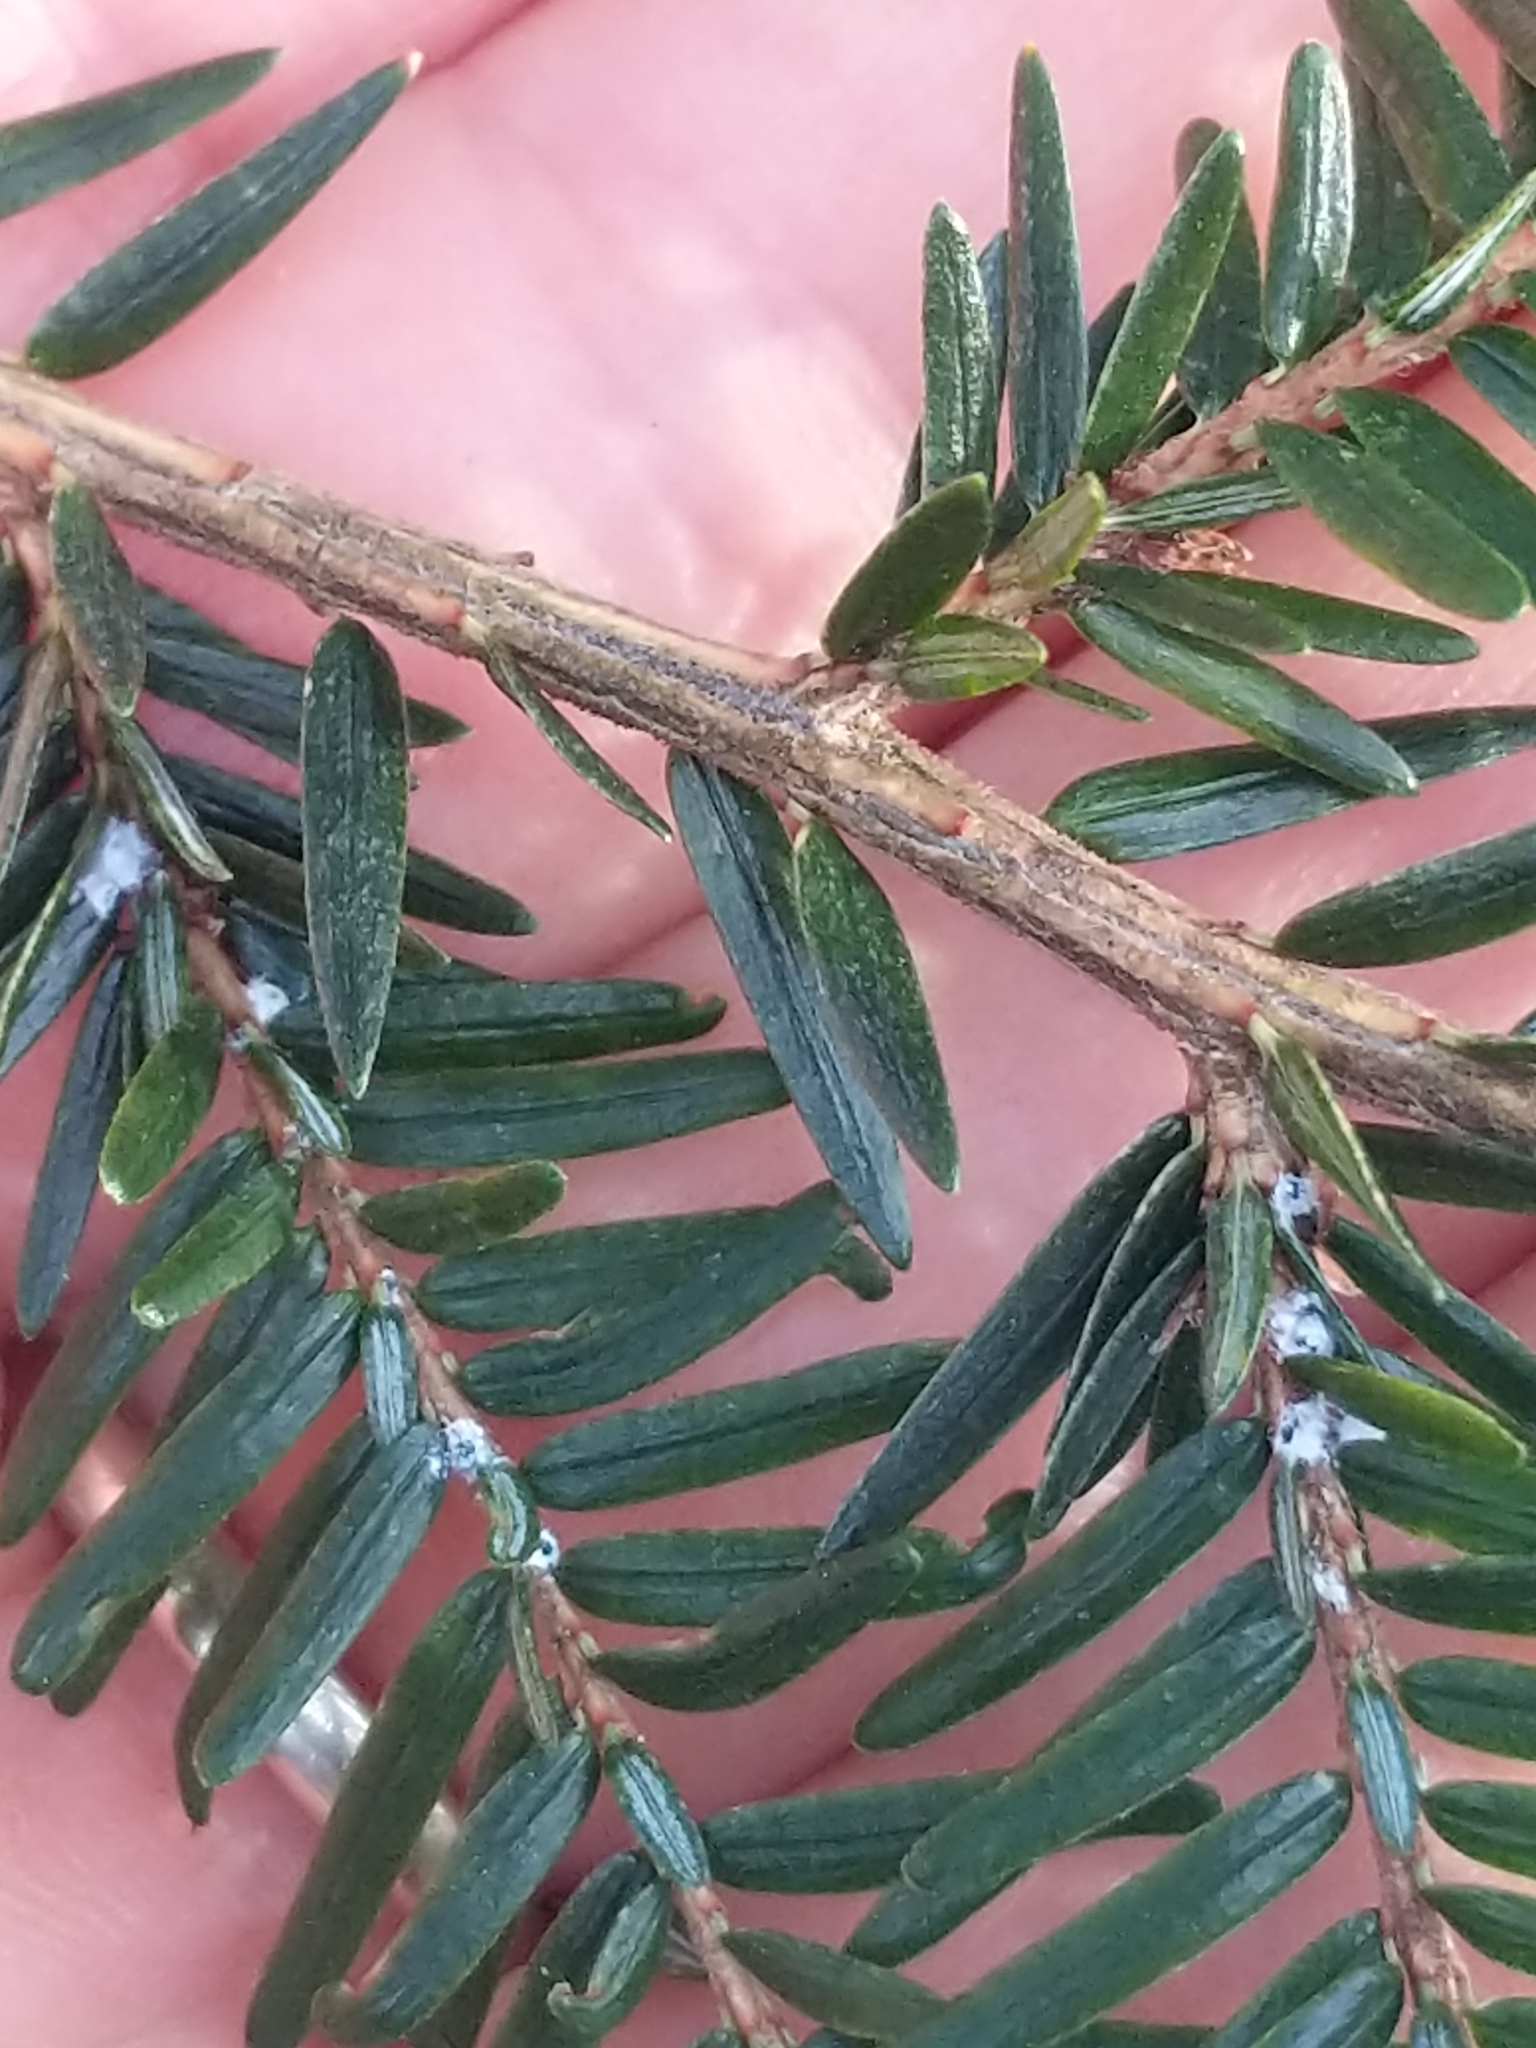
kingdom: Animalia
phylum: Arthropoda
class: Insecta
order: Hemiptera
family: Adelgidae
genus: Adelges
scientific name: Adelges tsugae
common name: Hemlock woolly adelgid
